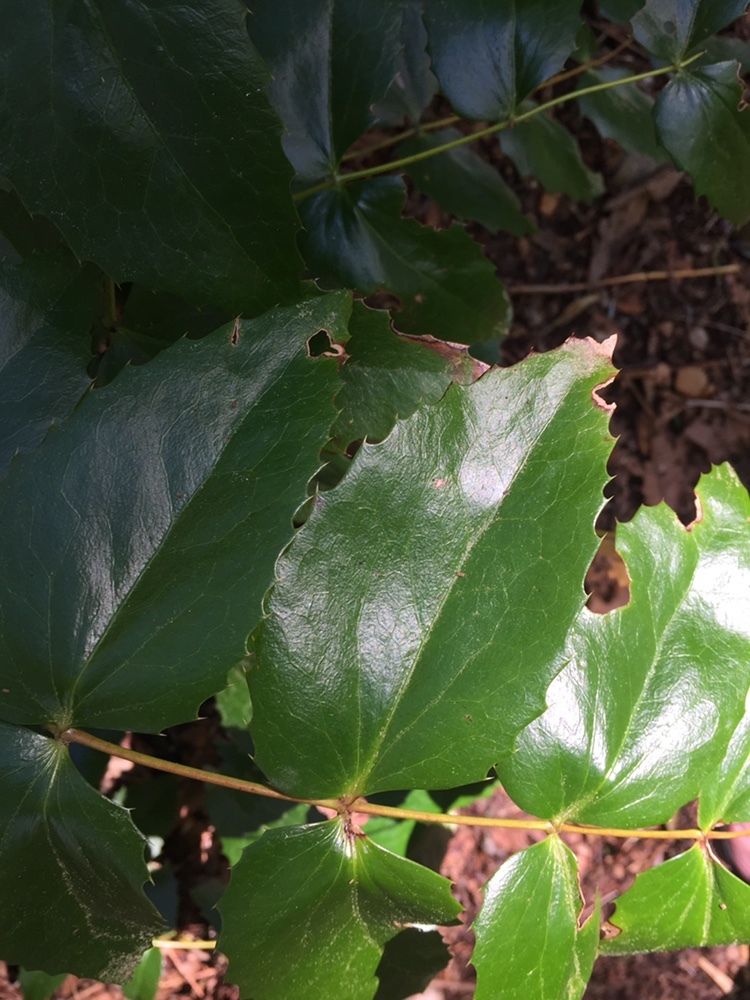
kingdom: Plantae
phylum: Tracheophyta
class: Magnoliopsida
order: Ranunculales
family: Berberidaceae
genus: Mahonia
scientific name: Mahonia nervosa
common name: Cascade oregon-grape
